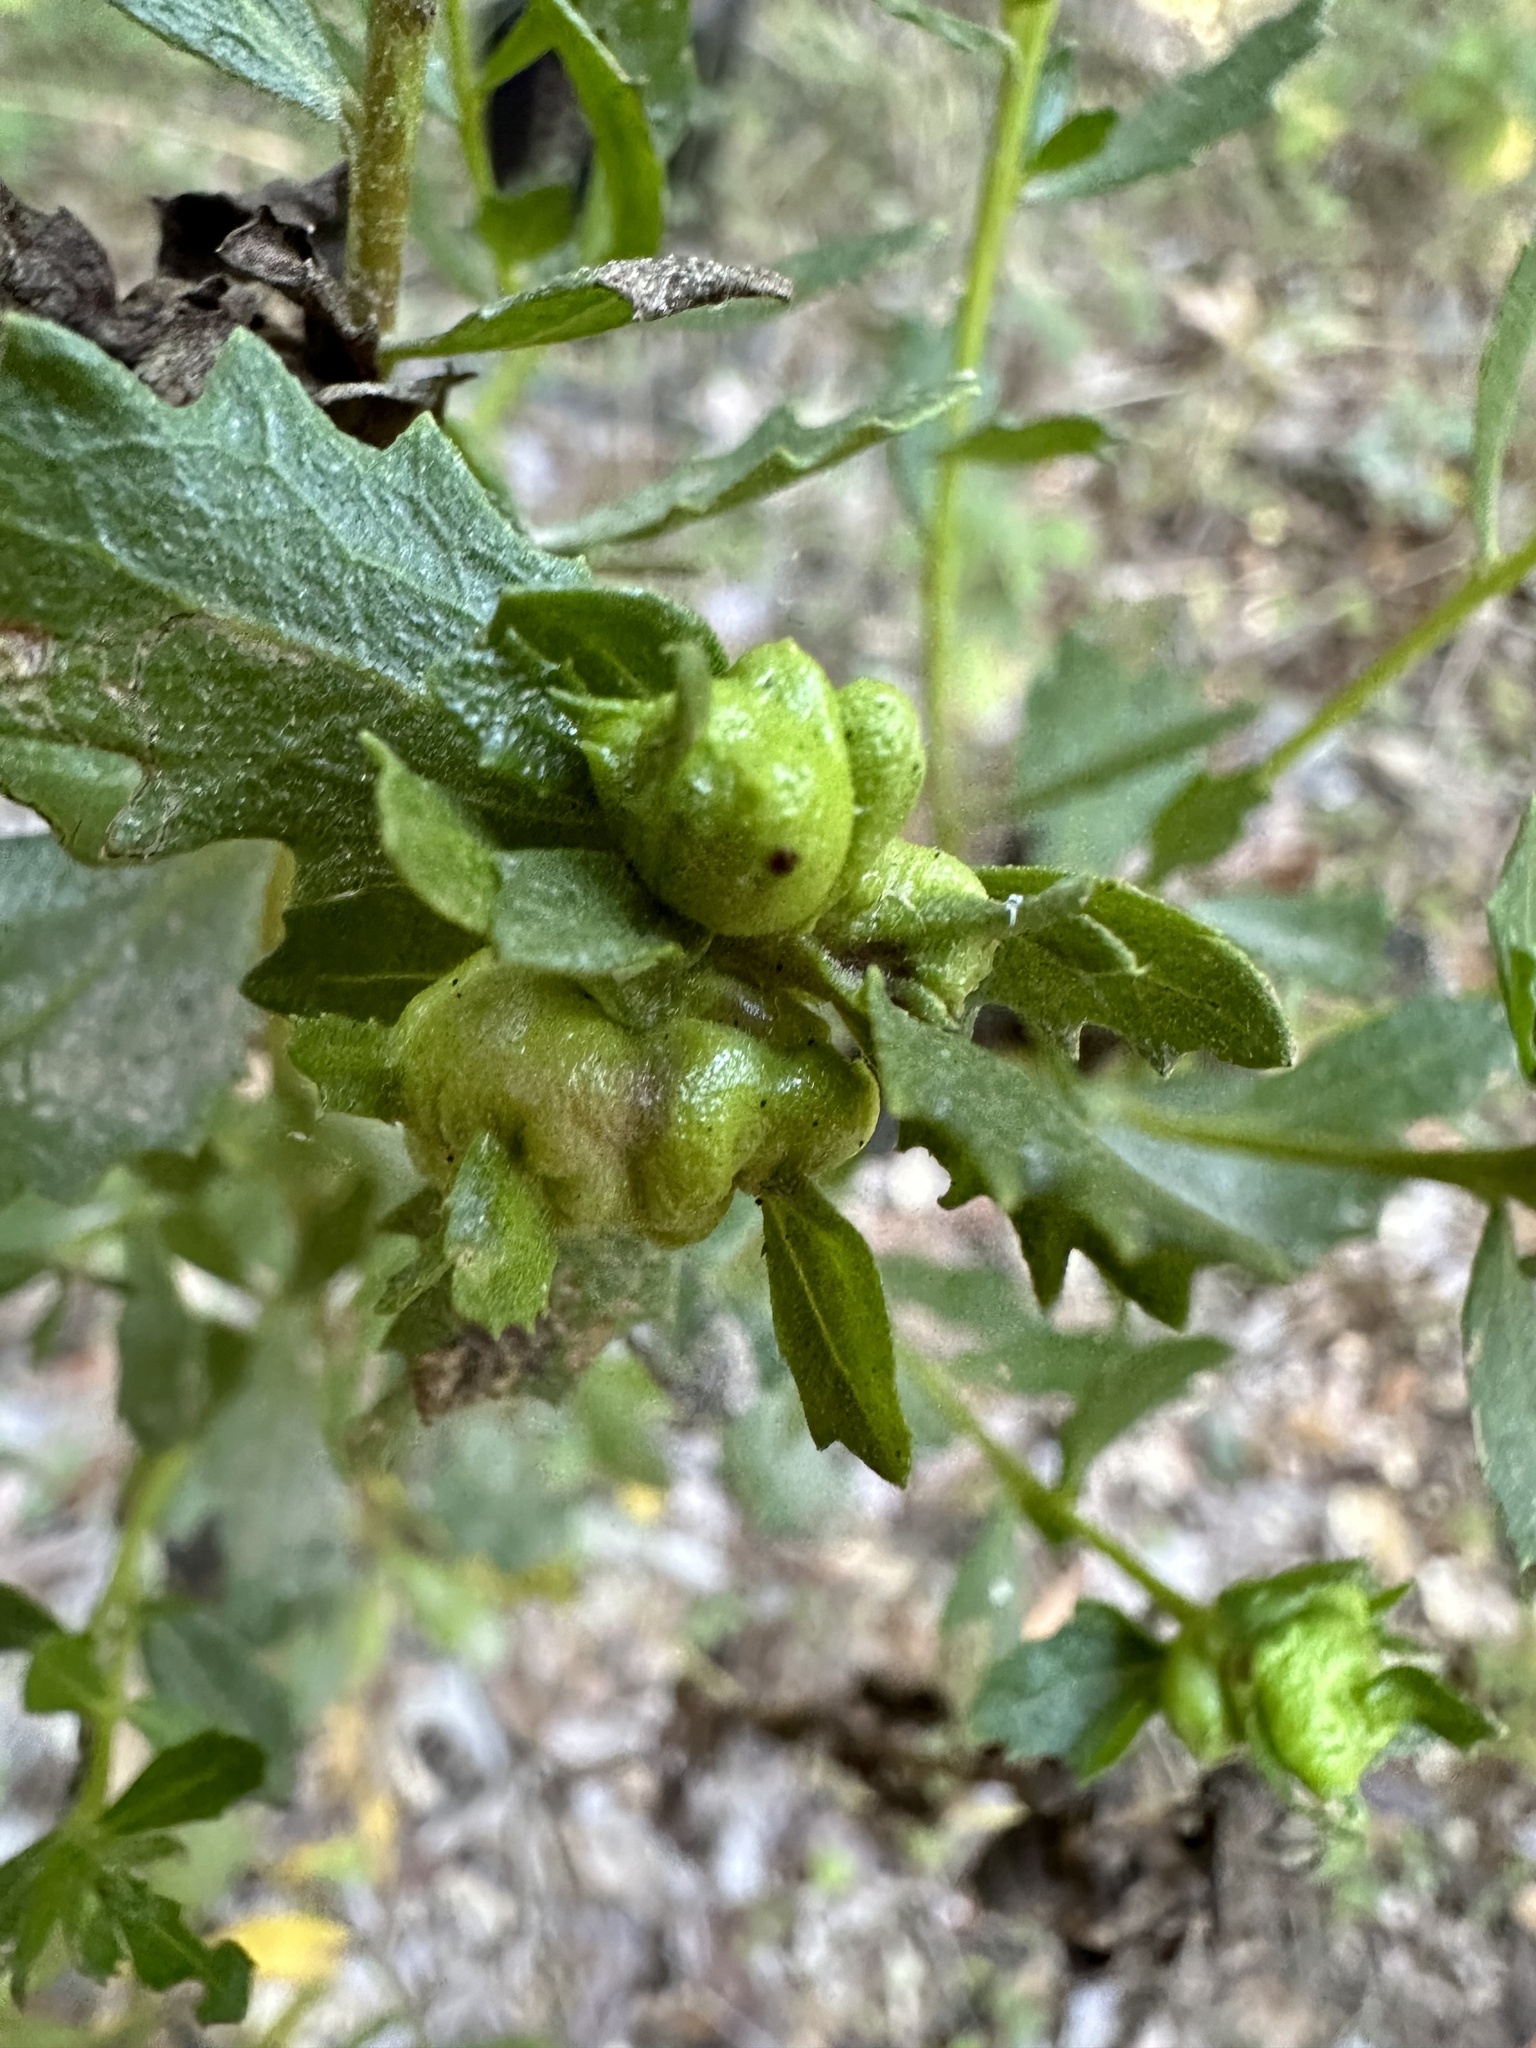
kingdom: Animalia
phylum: Arthropoda
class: Insecta
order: Diptera
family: Cecidomyiidae
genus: Rhopalomyia
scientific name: Rhopalomyia californica
